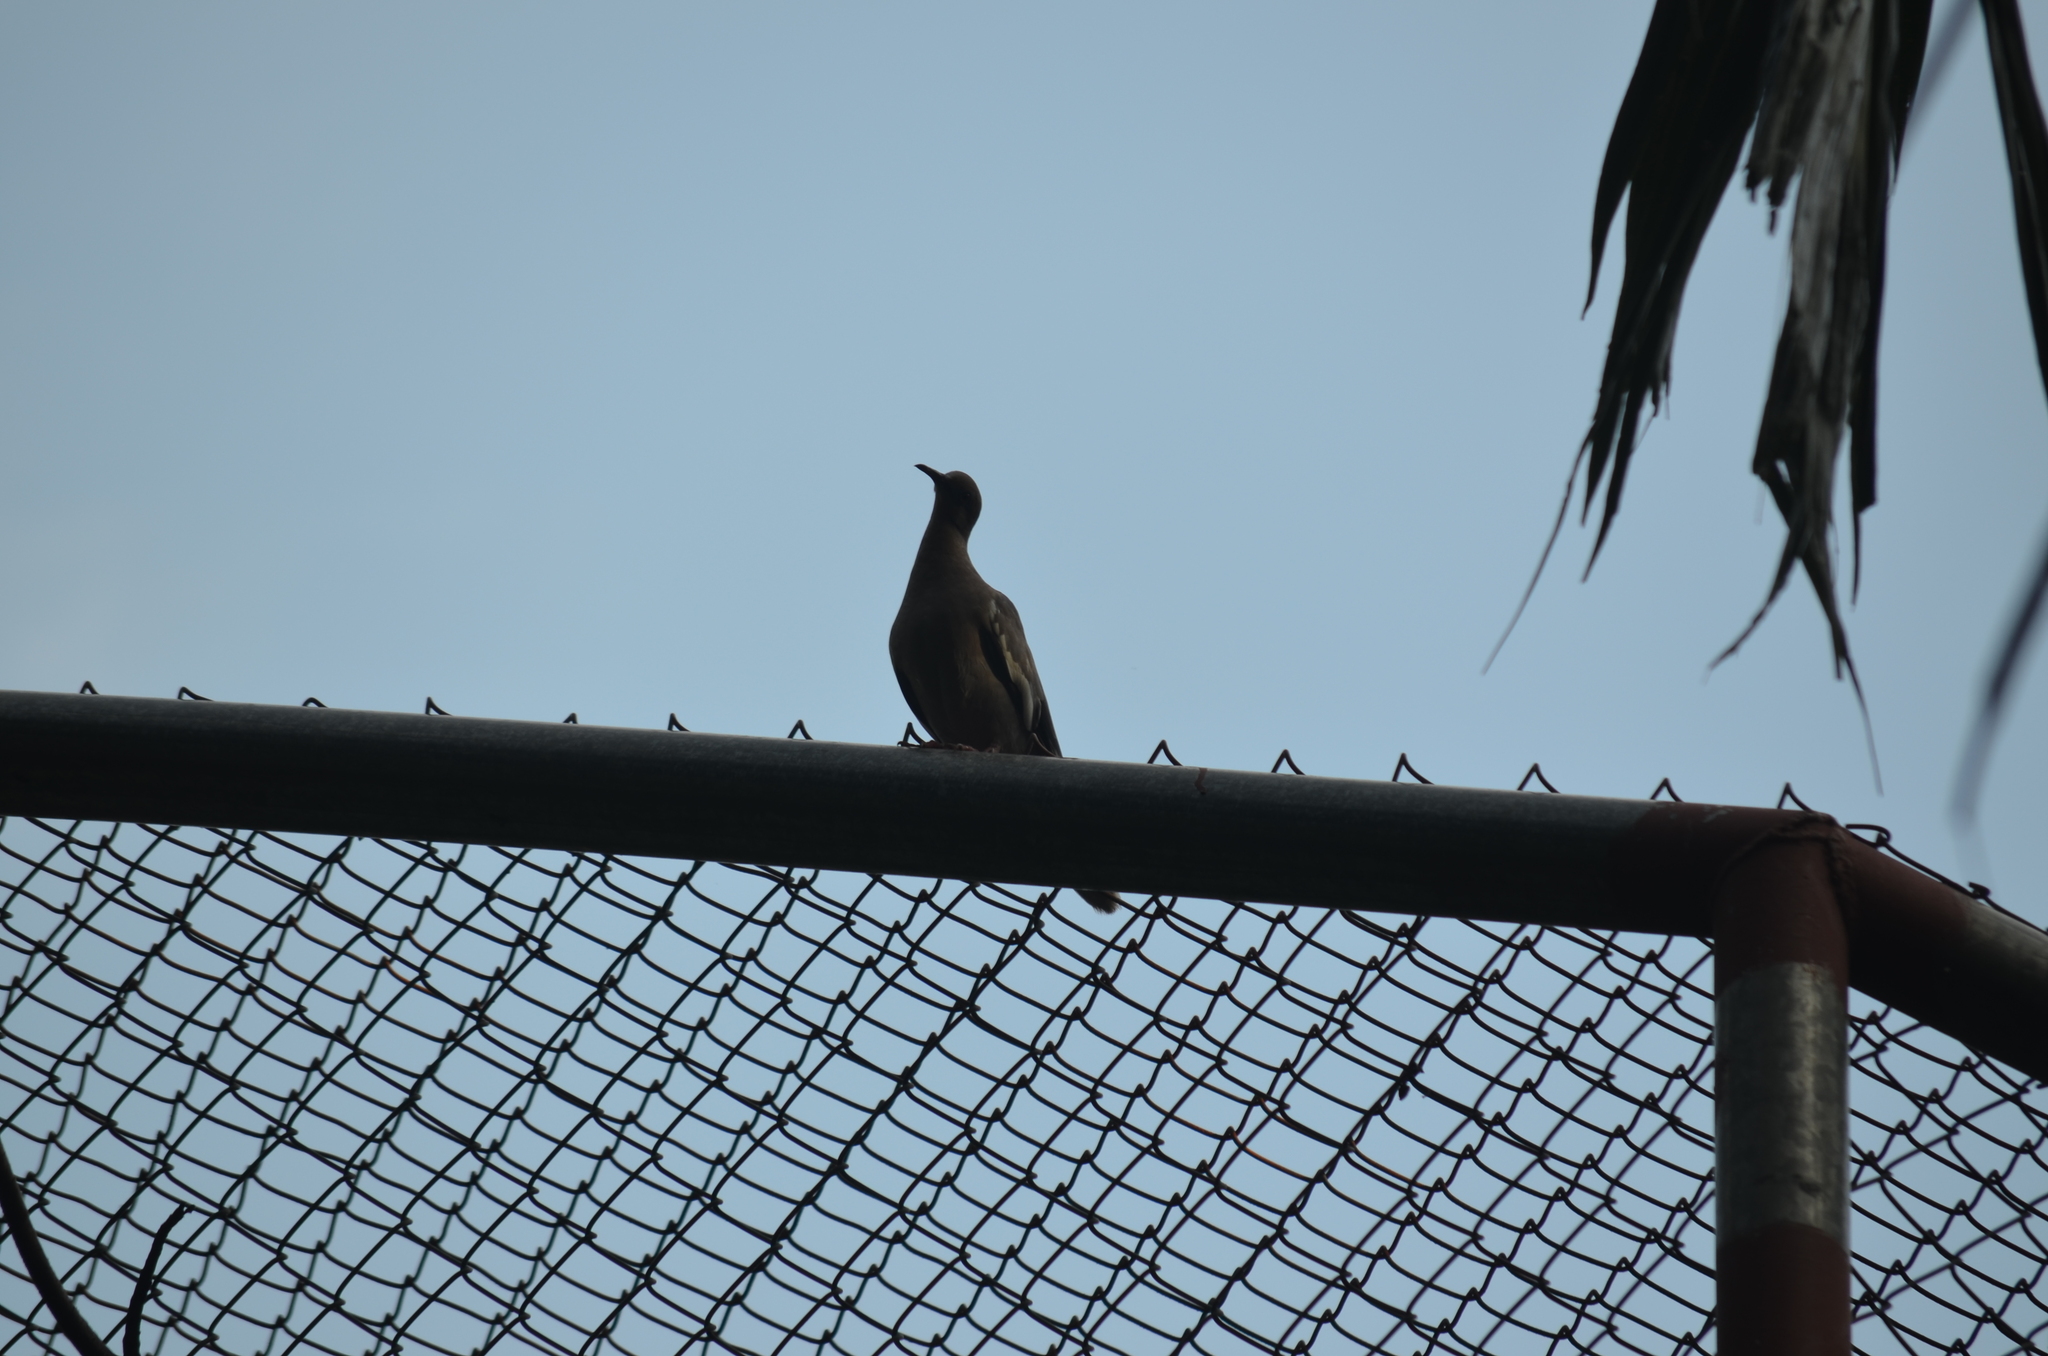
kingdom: Animalia
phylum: Chordata
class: Aves
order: Columbiformes
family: Columbidae
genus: Zenaida
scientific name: Zenaida asiatica
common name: White-winged dove
